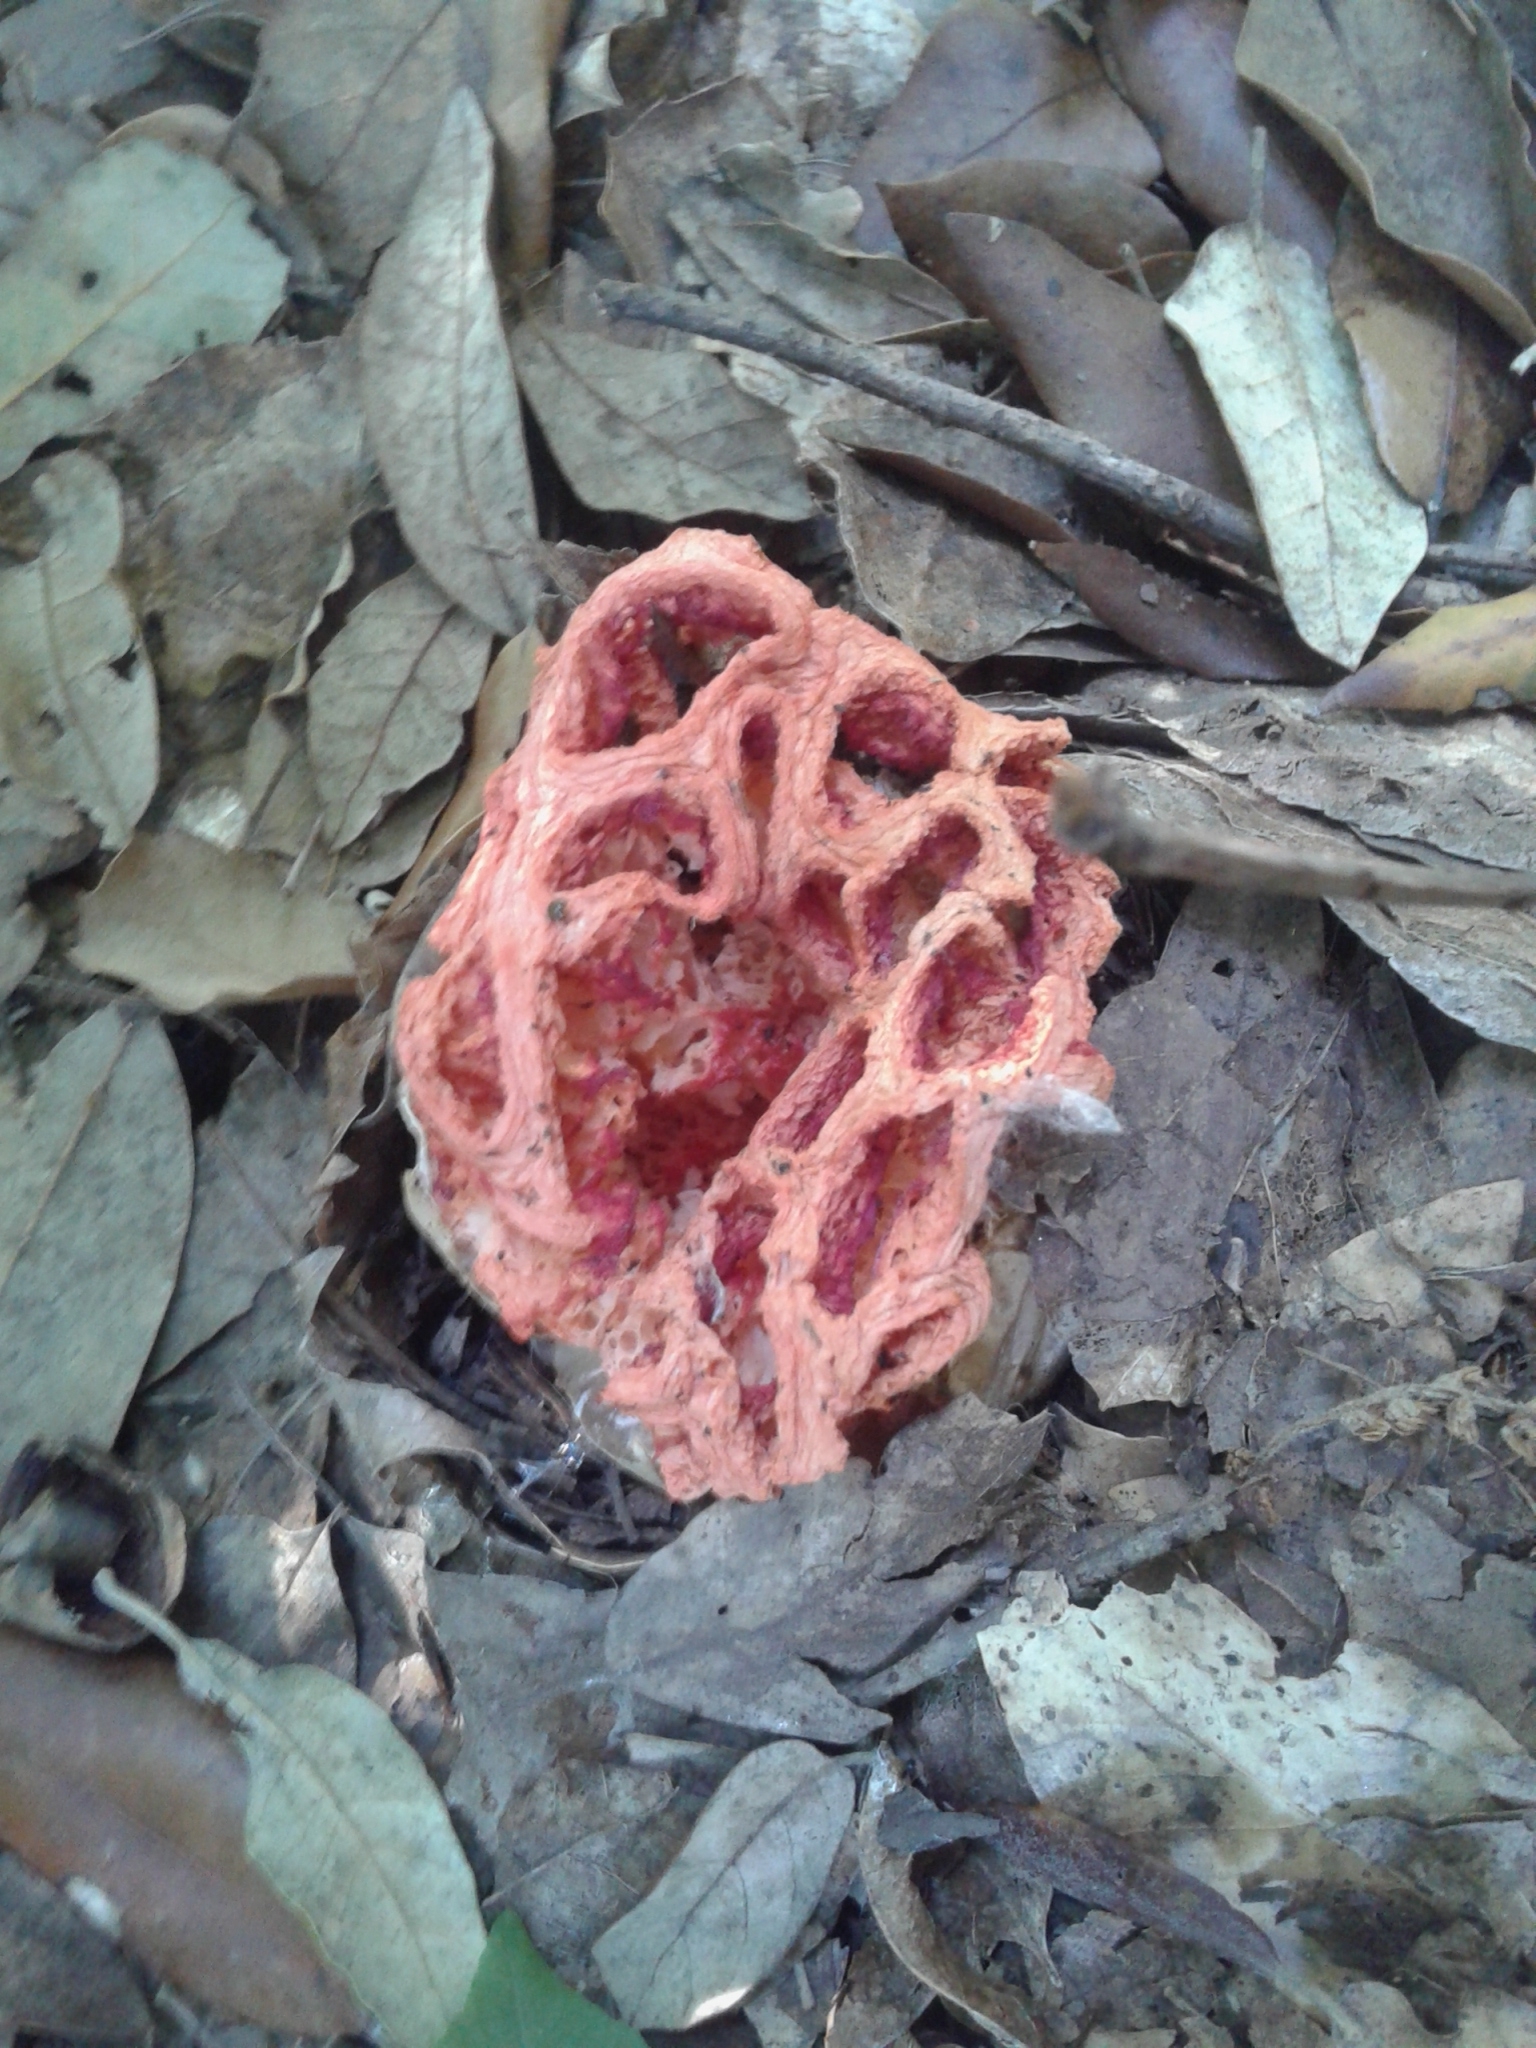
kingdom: Fungi
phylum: Basidiomycota
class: Agaricomycetes
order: Phallales
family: Phallaceae
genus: Clathrus
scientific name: Clathrus ruber
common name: Red cage
